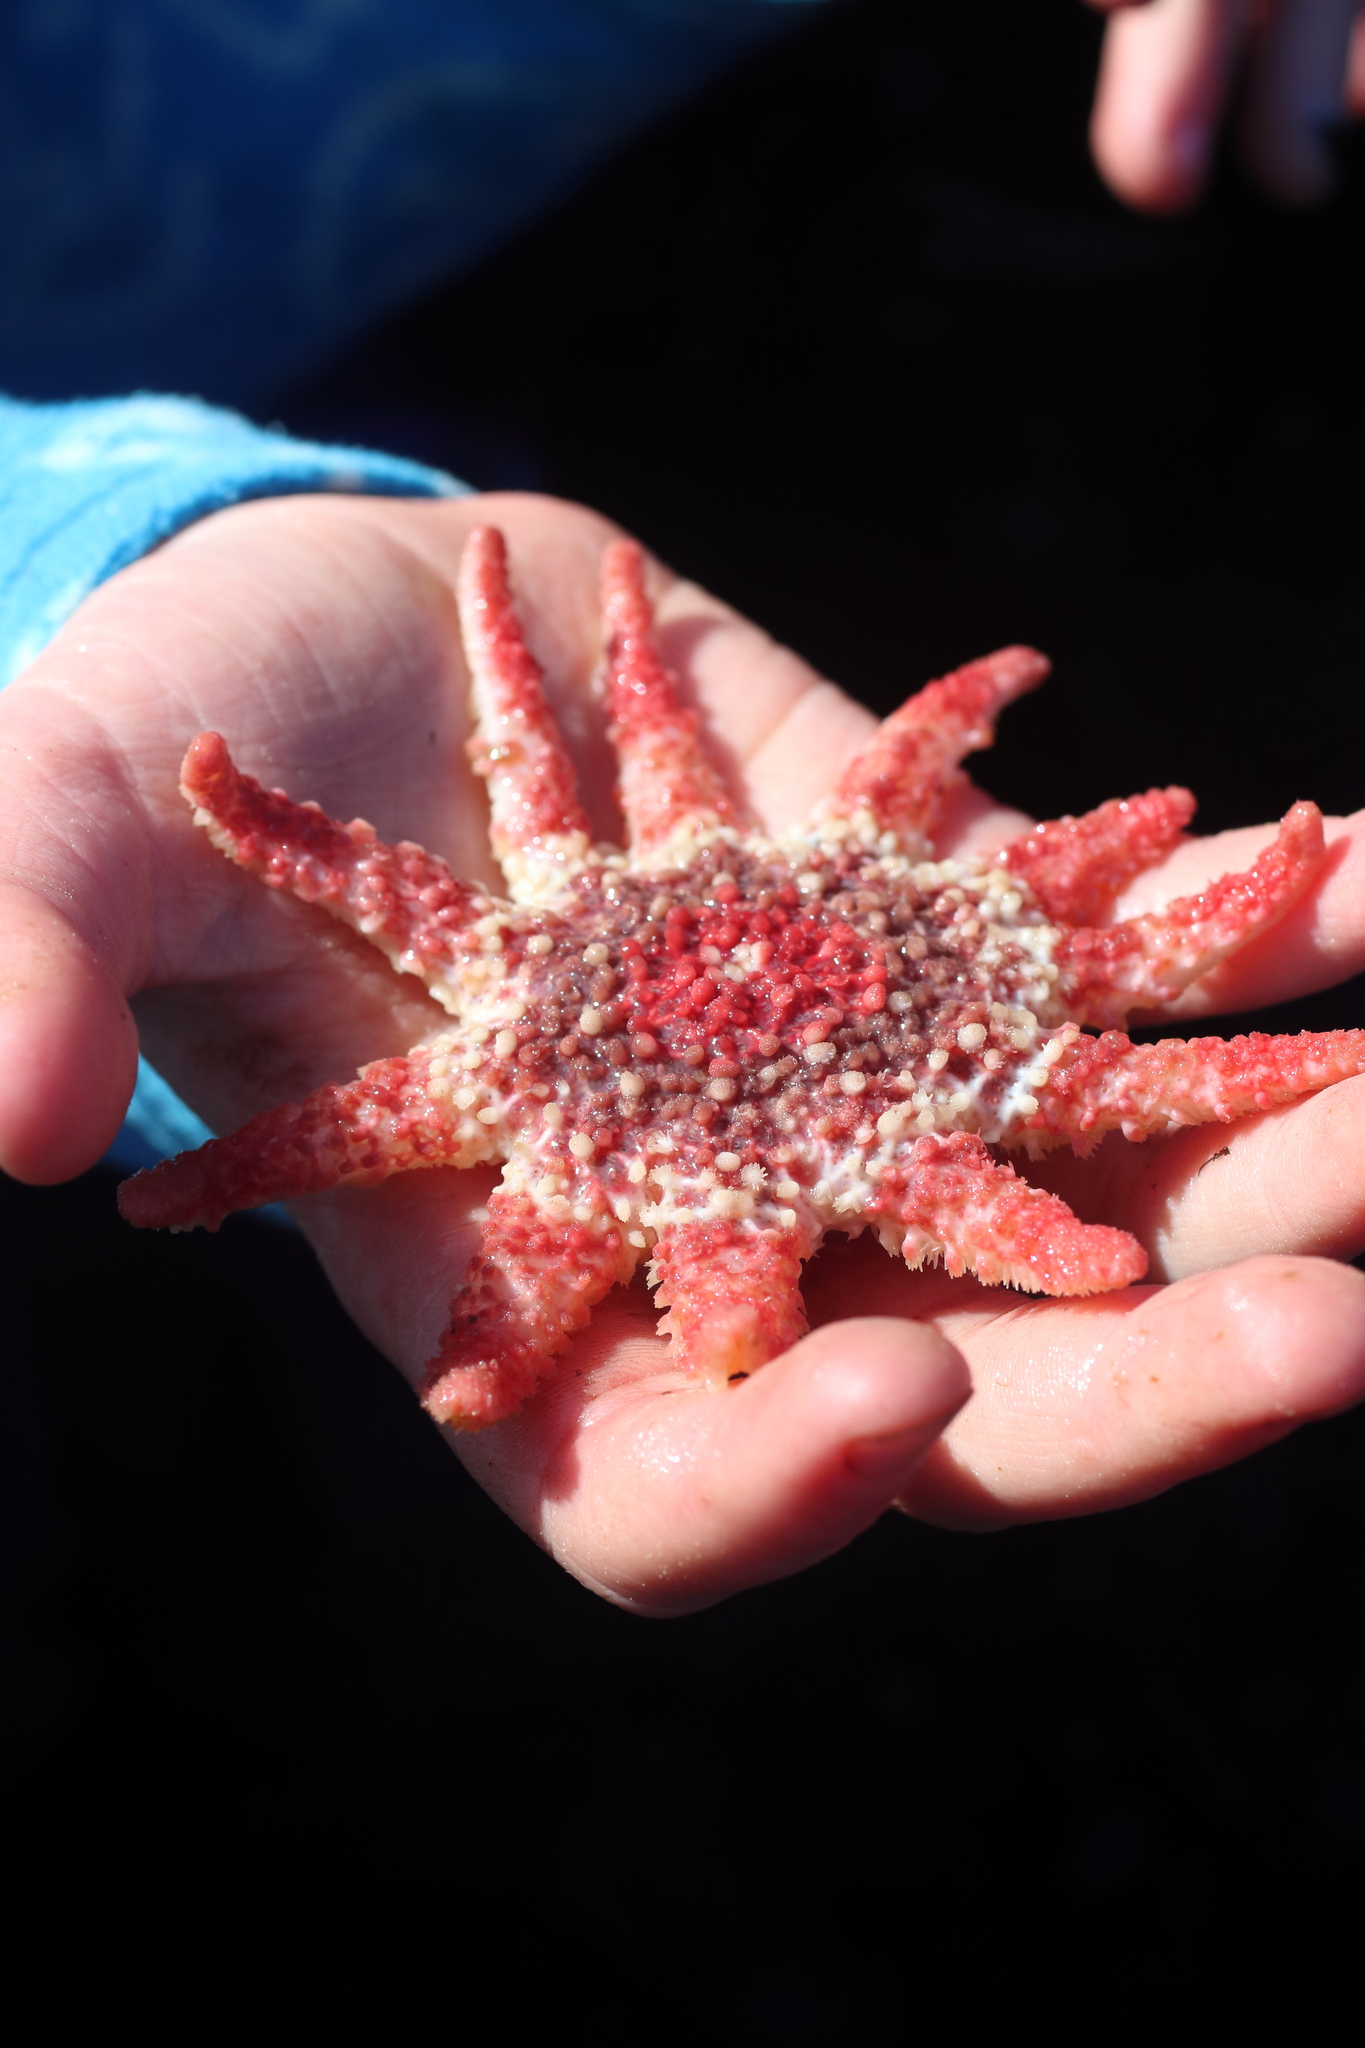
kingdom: Animalia
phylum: Echinodermata
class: Asteroidea
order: Valvatida
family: Solasteridae
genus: Crossaster
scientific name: Crossaster papposus
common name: Common sun star
